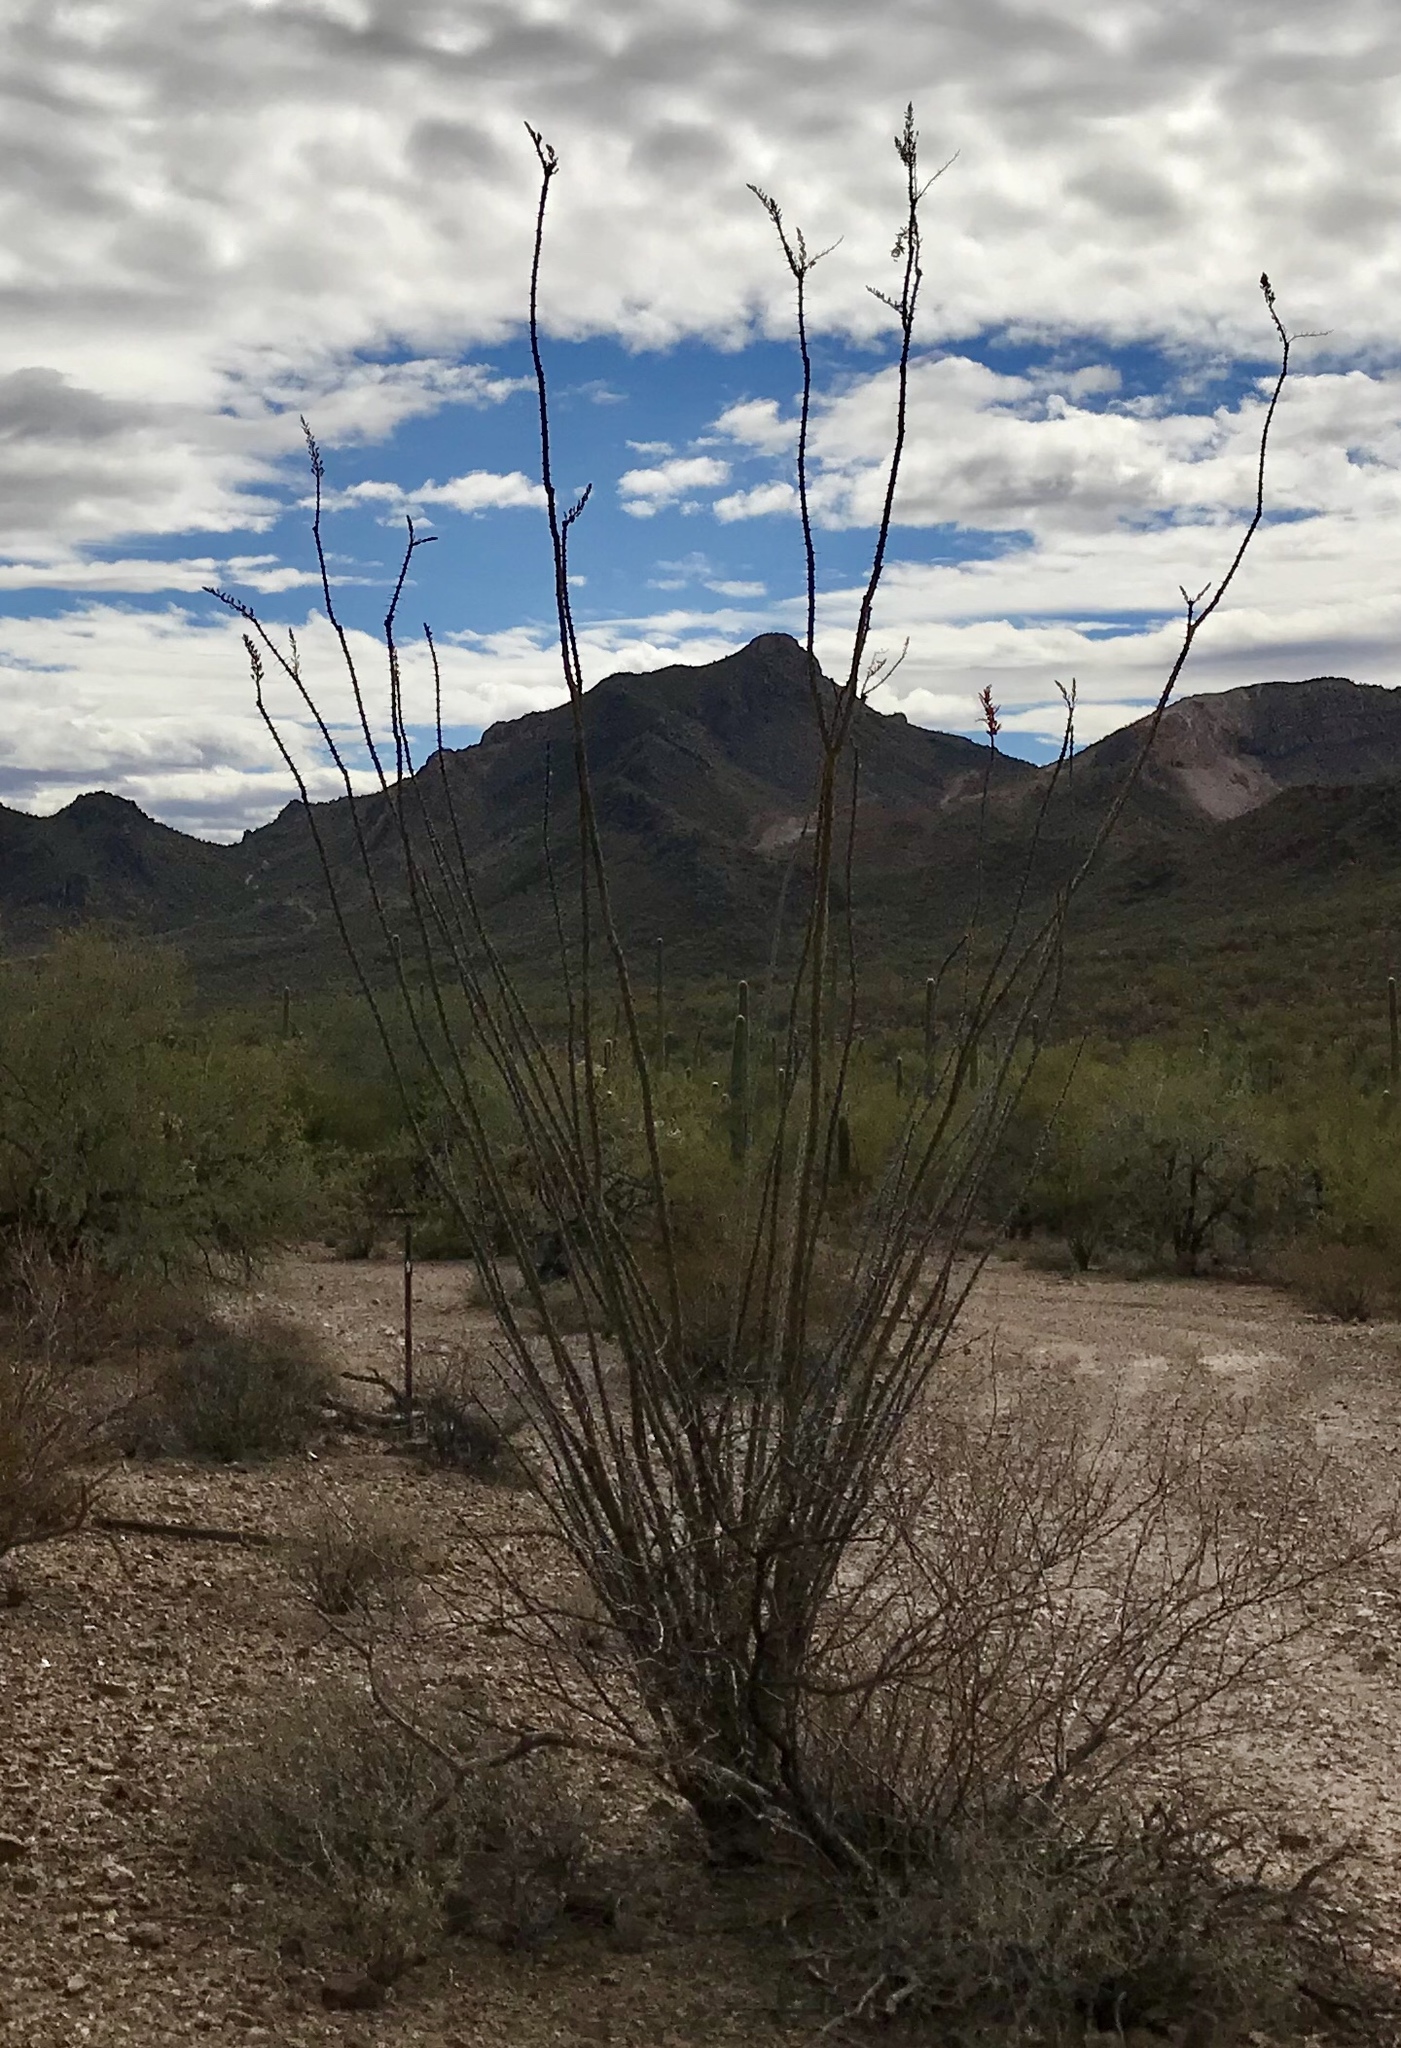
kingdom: Plantae
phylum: Tracheophyta
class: Magnoliopsida
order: Ericales
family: Fouquieriaceae
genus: Fouquieria
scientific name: Fouquieria splendens
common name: Vine-cactus
